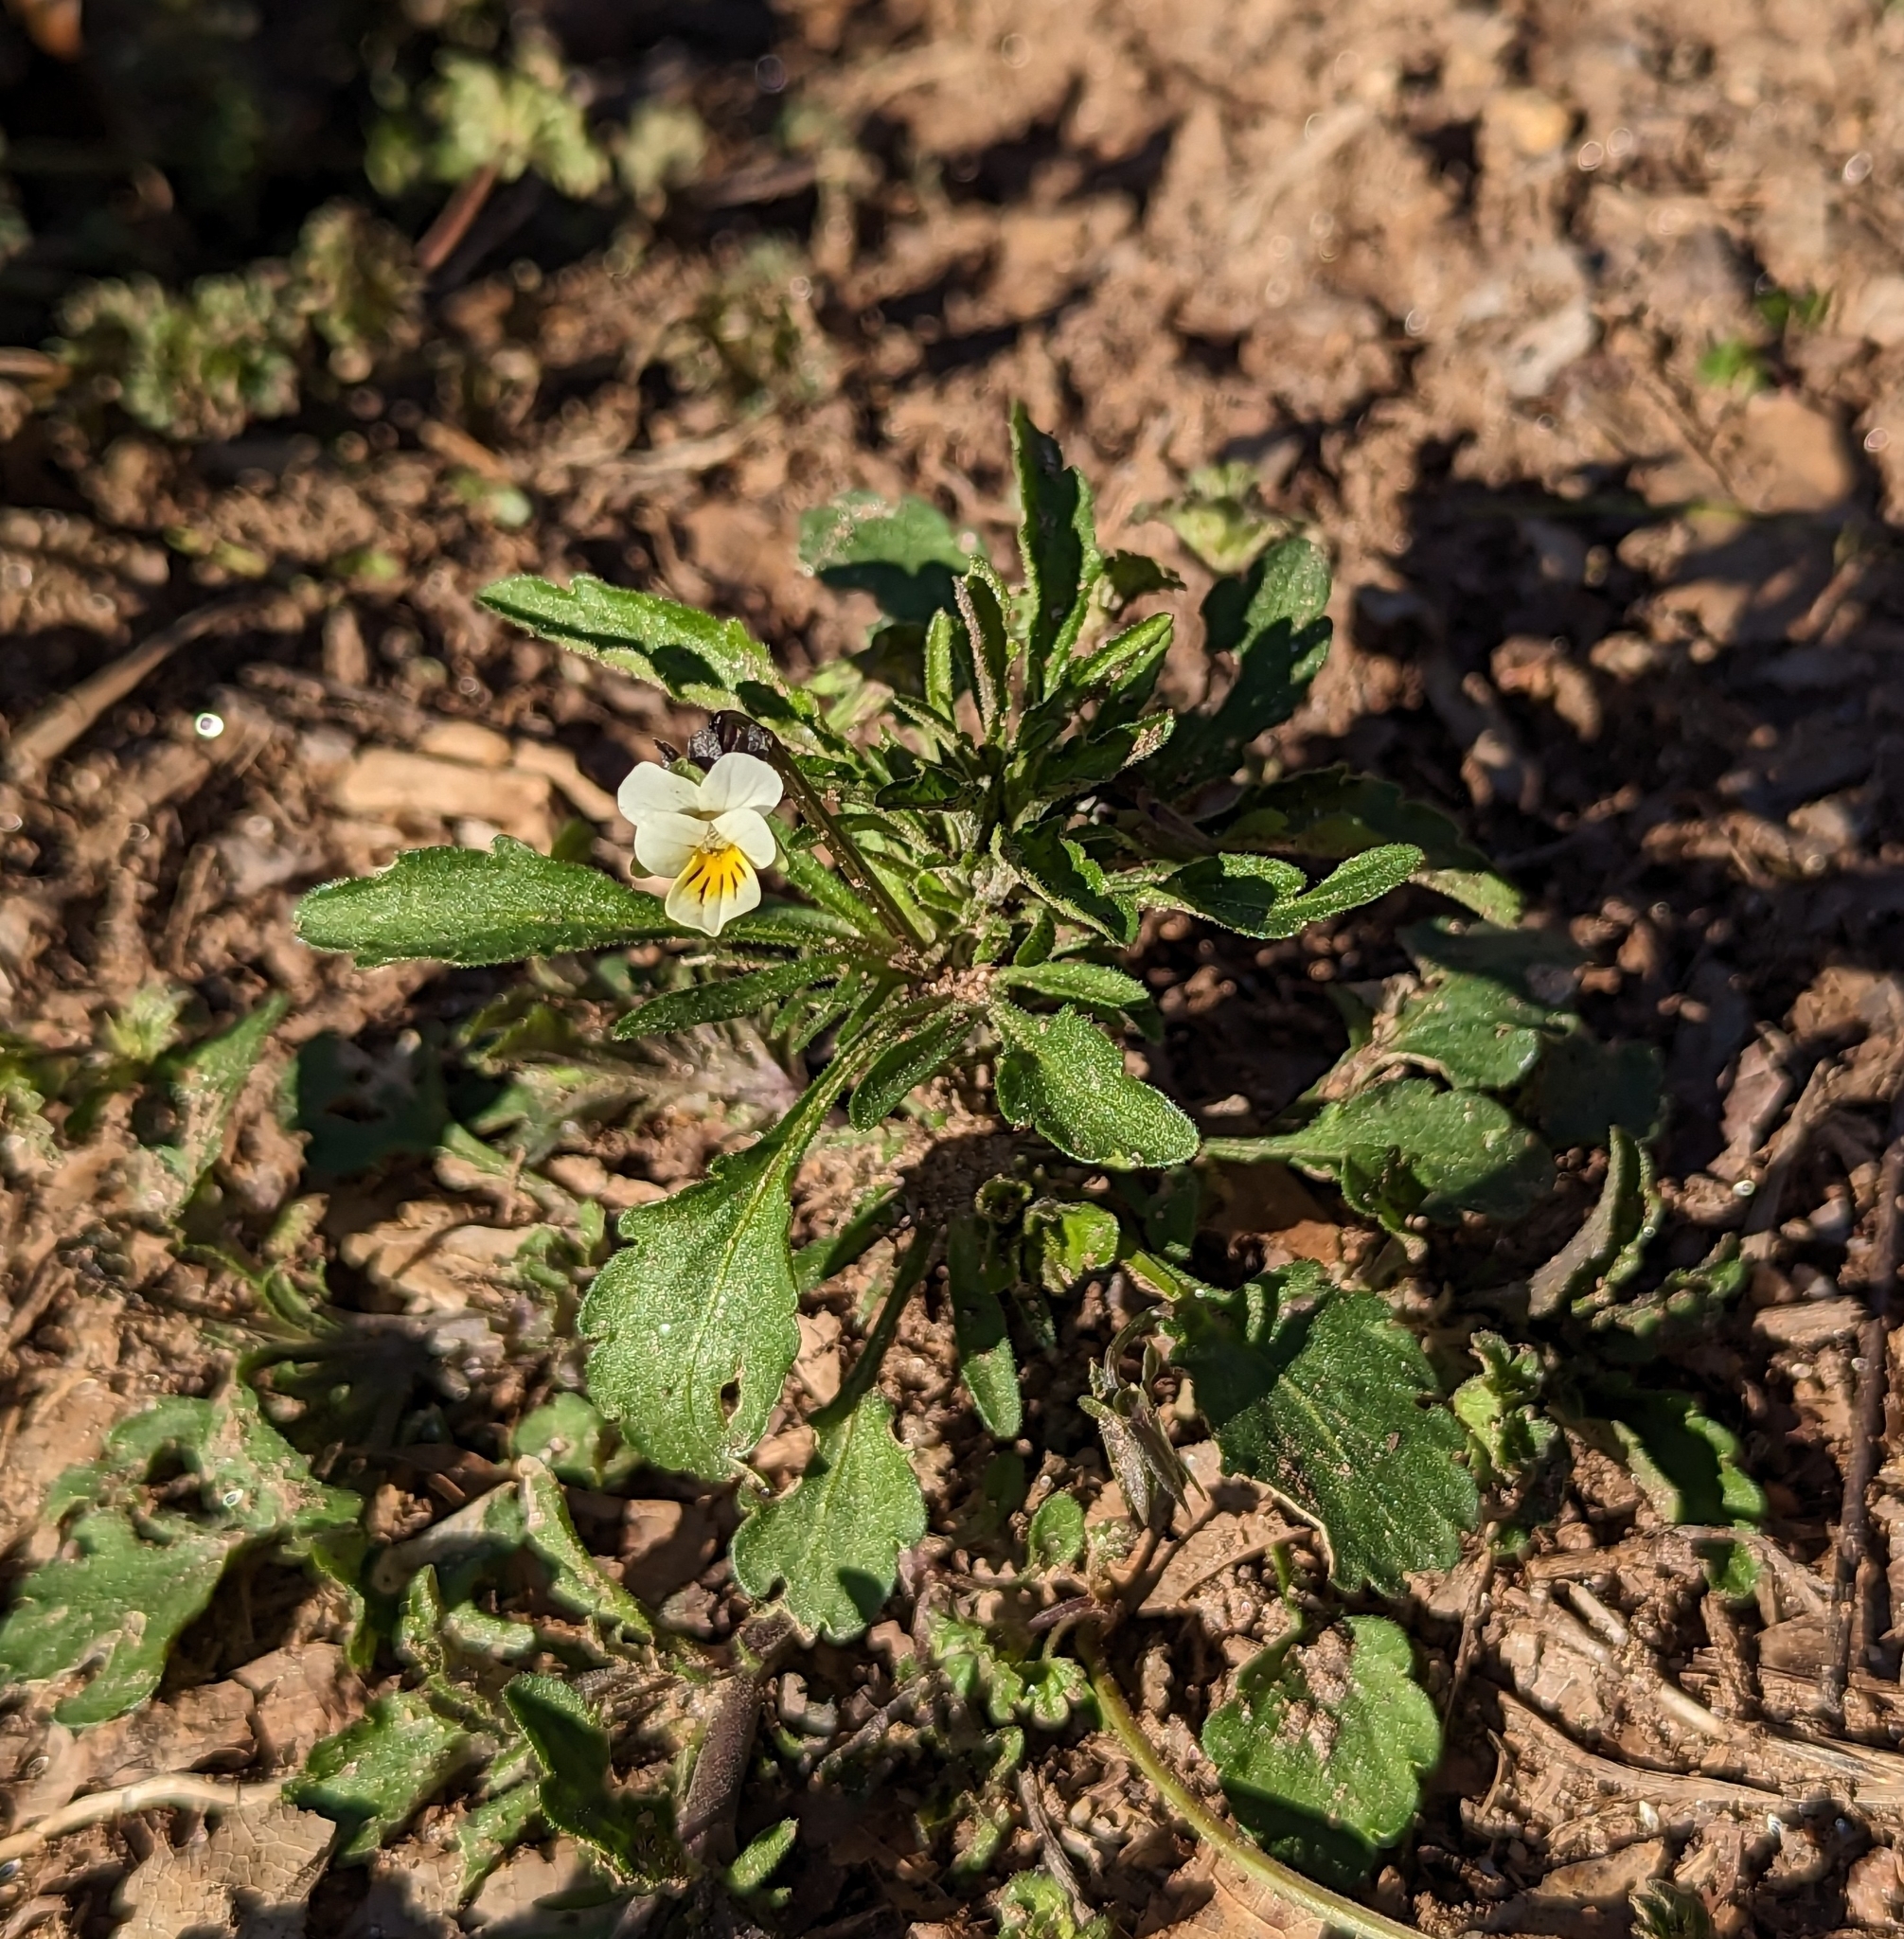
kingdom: Plantae
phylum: Tracheophyta
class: Magnoliopsida
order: Malpighiales
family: Violaceae
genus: Viola
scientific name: Viola arvensis
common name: Field pansy
